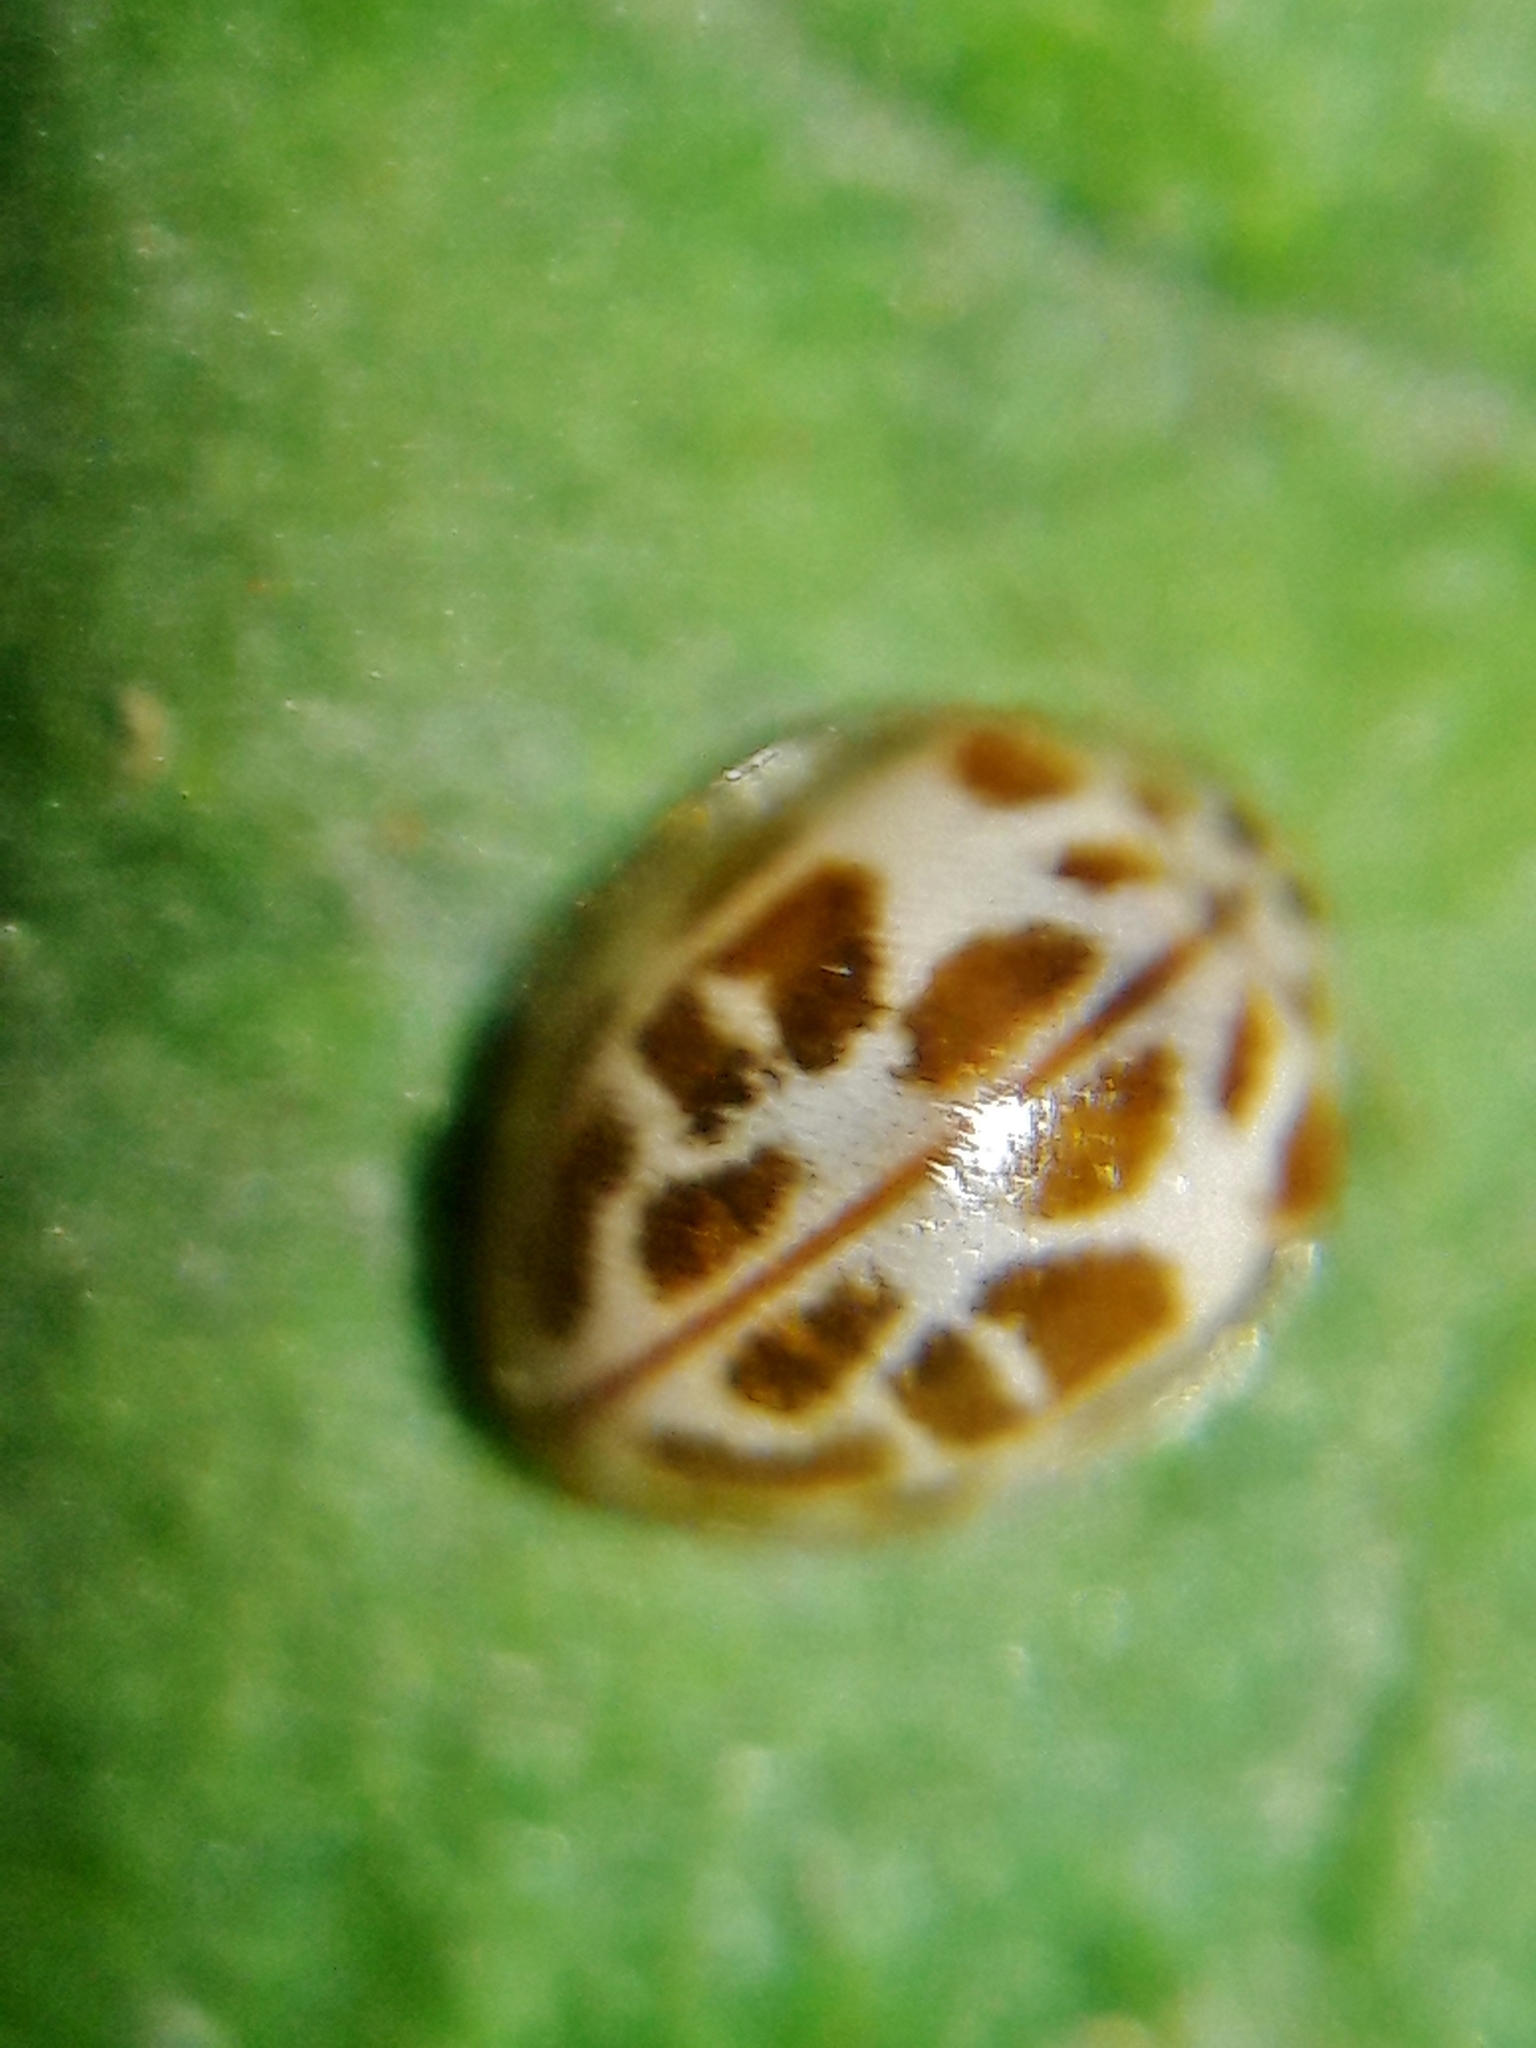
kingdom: Animalia
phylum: Arthropoda
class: Insecta
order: Coleoptera
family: Coccinellidae
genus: Psyllobora
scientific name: Psyllobora confluens
